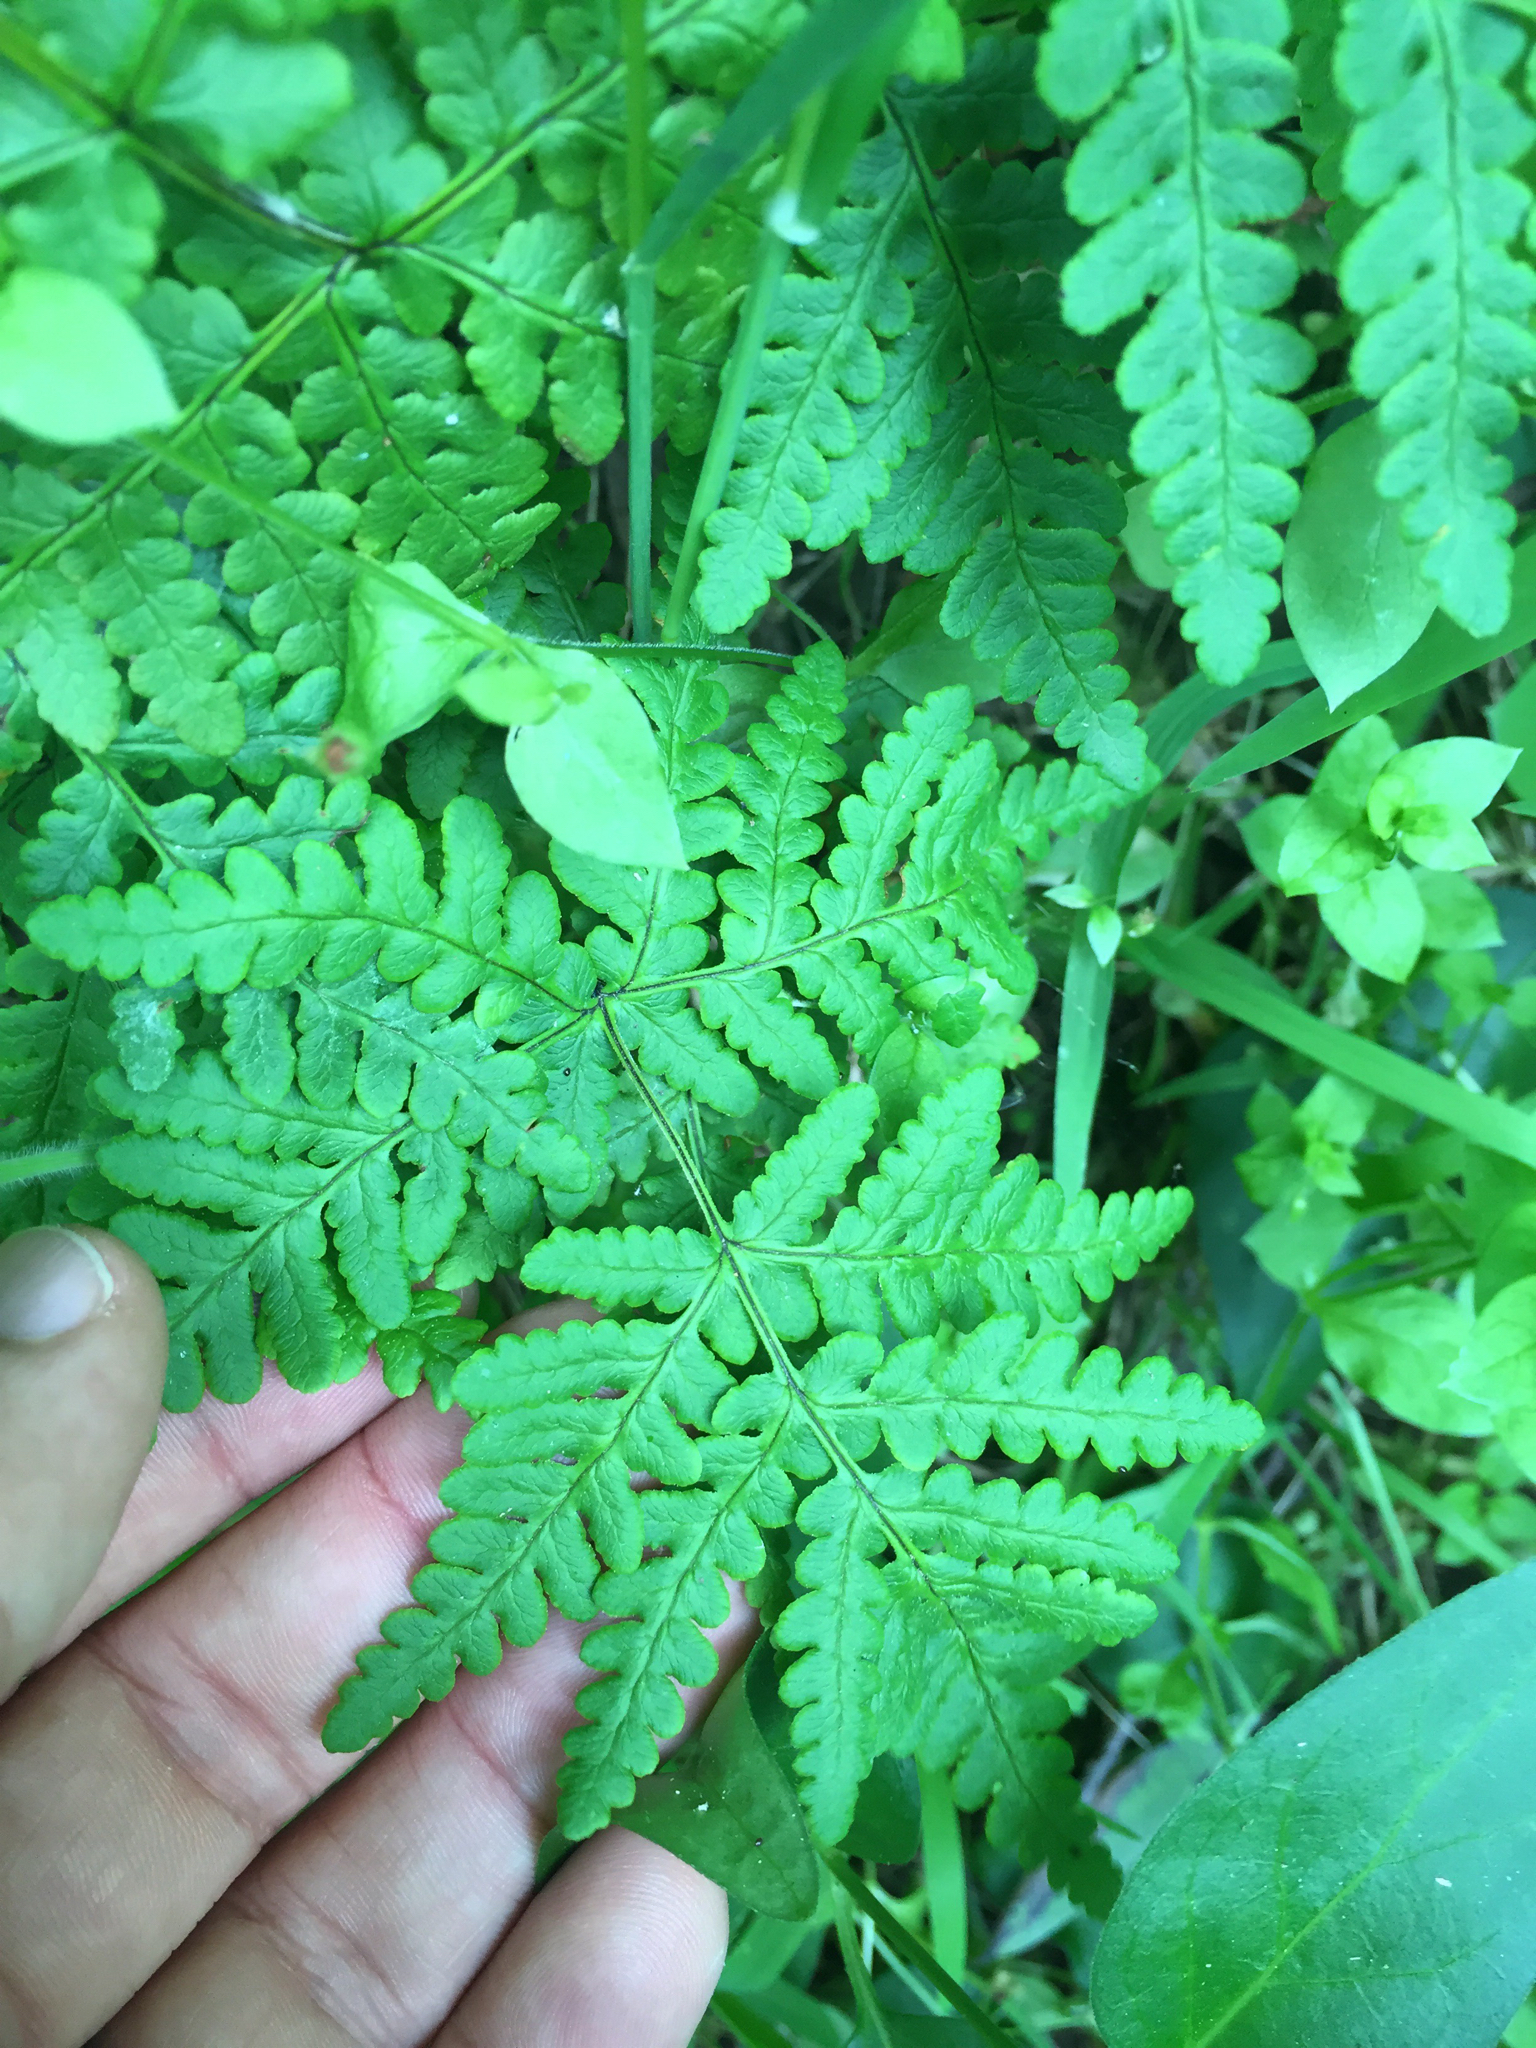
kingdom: Plantae
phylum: Tracheophyta
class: Polypodiopsida
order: Polypodiales
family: Pteridaceae
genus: Pentagramma
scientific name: Pentagramma triangularis
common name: Gold fern
